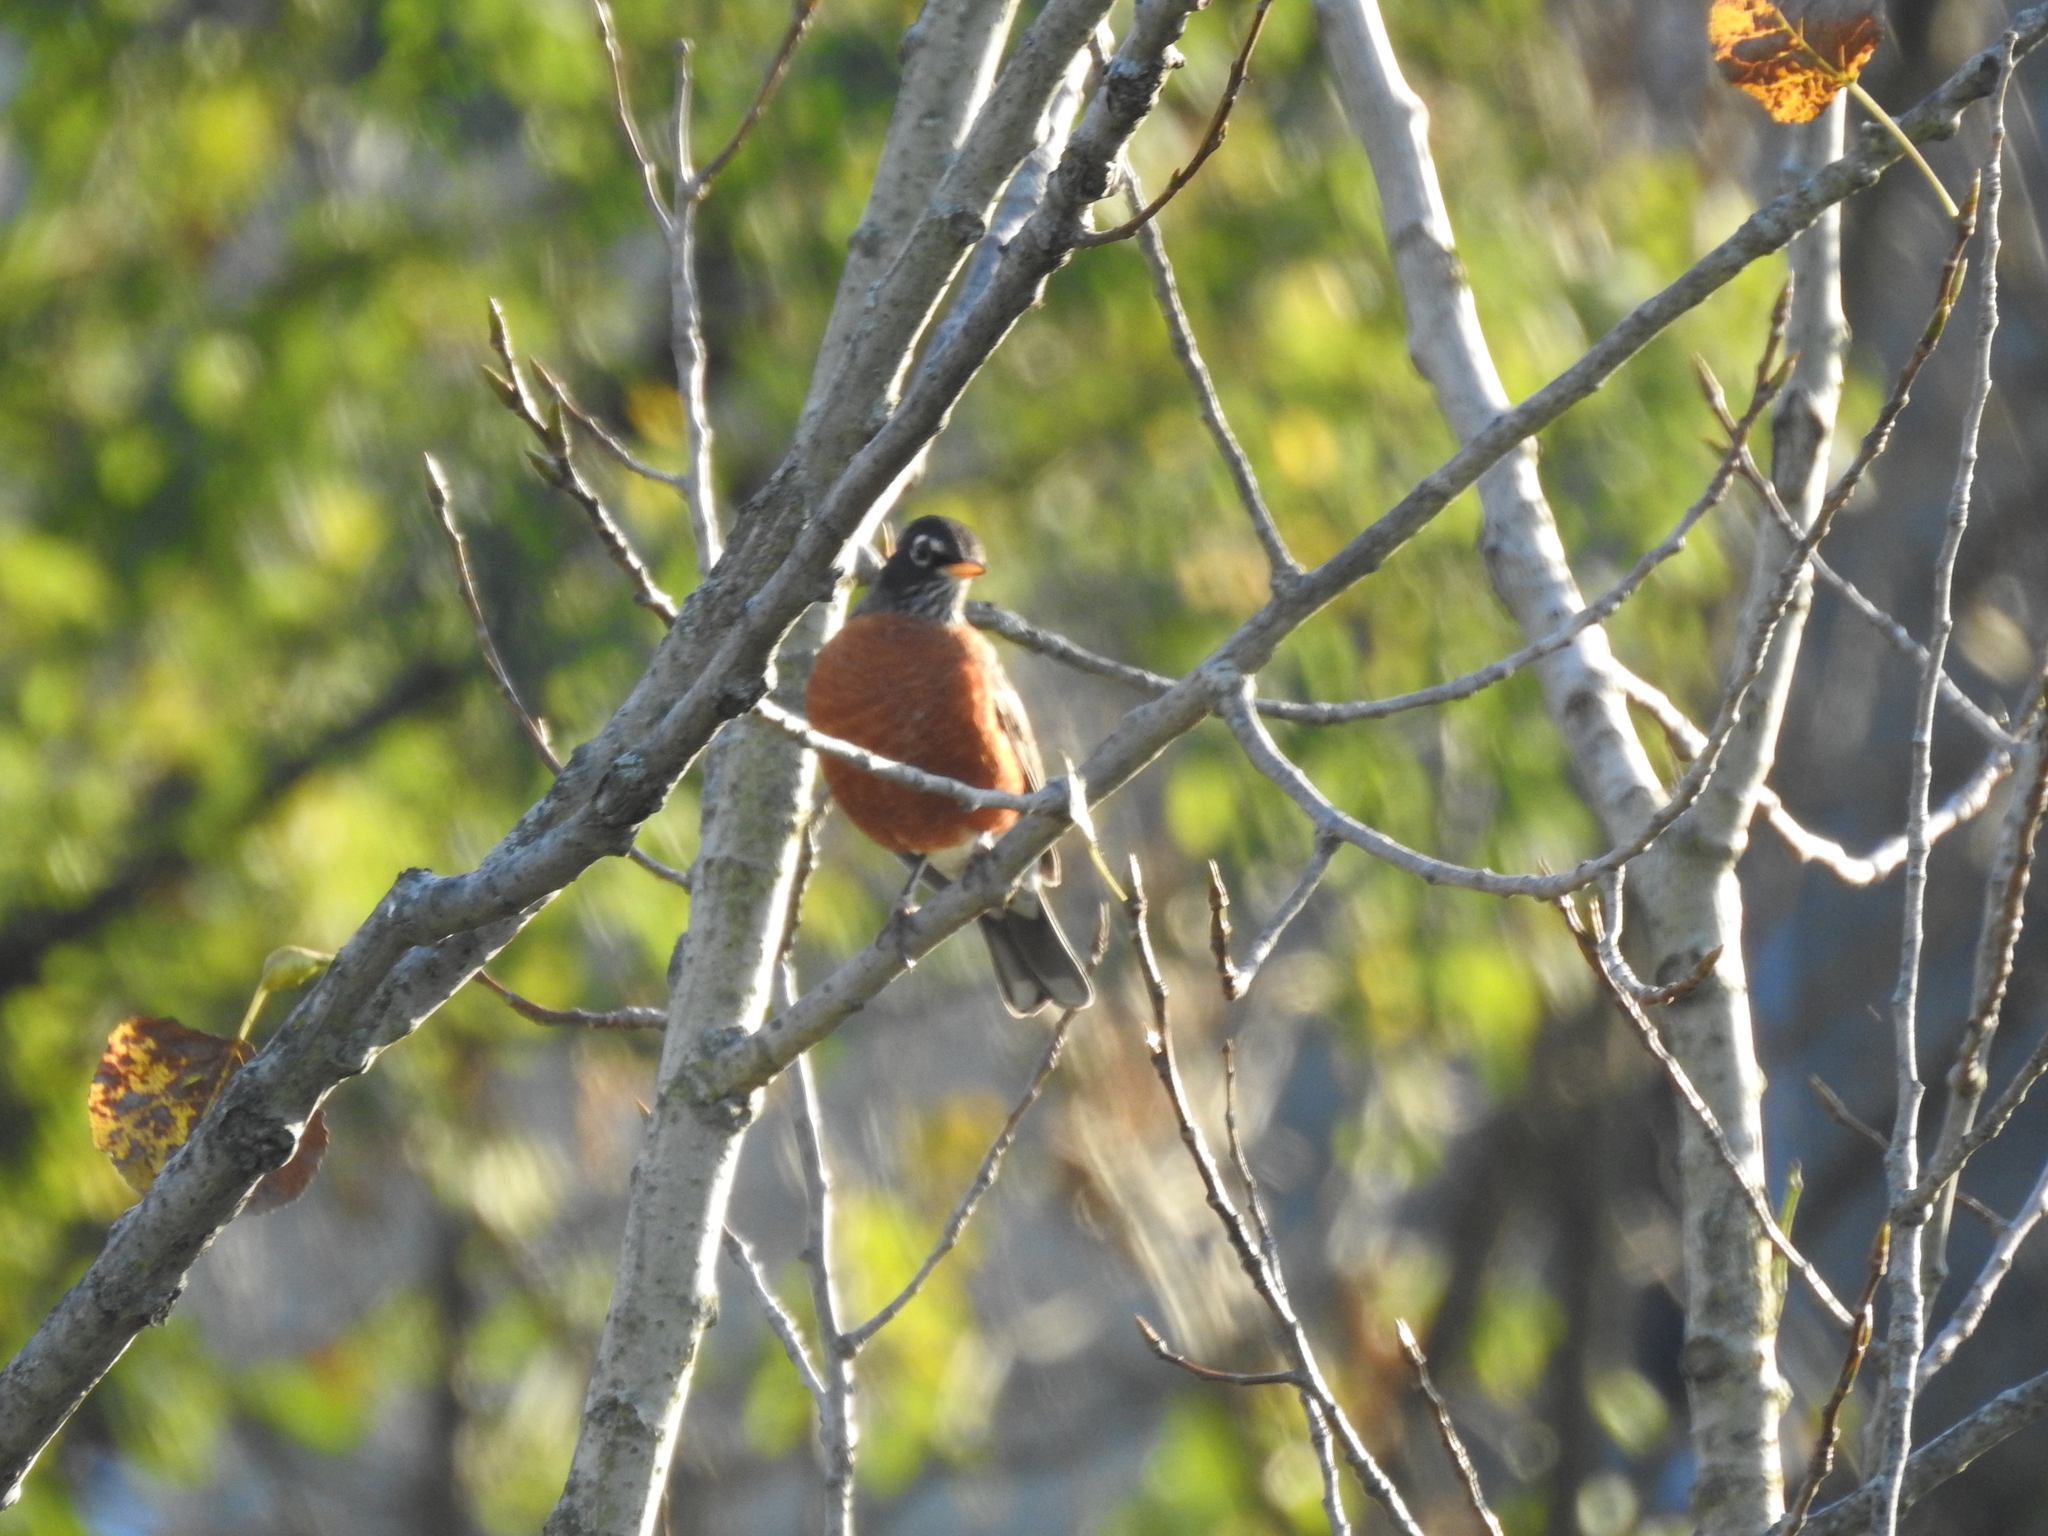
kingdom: Animalia
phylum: Chordata
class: Aves
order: Passeriformes
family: Turdidae
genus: Turdus
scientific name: Turdus migratorius
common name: American robin
